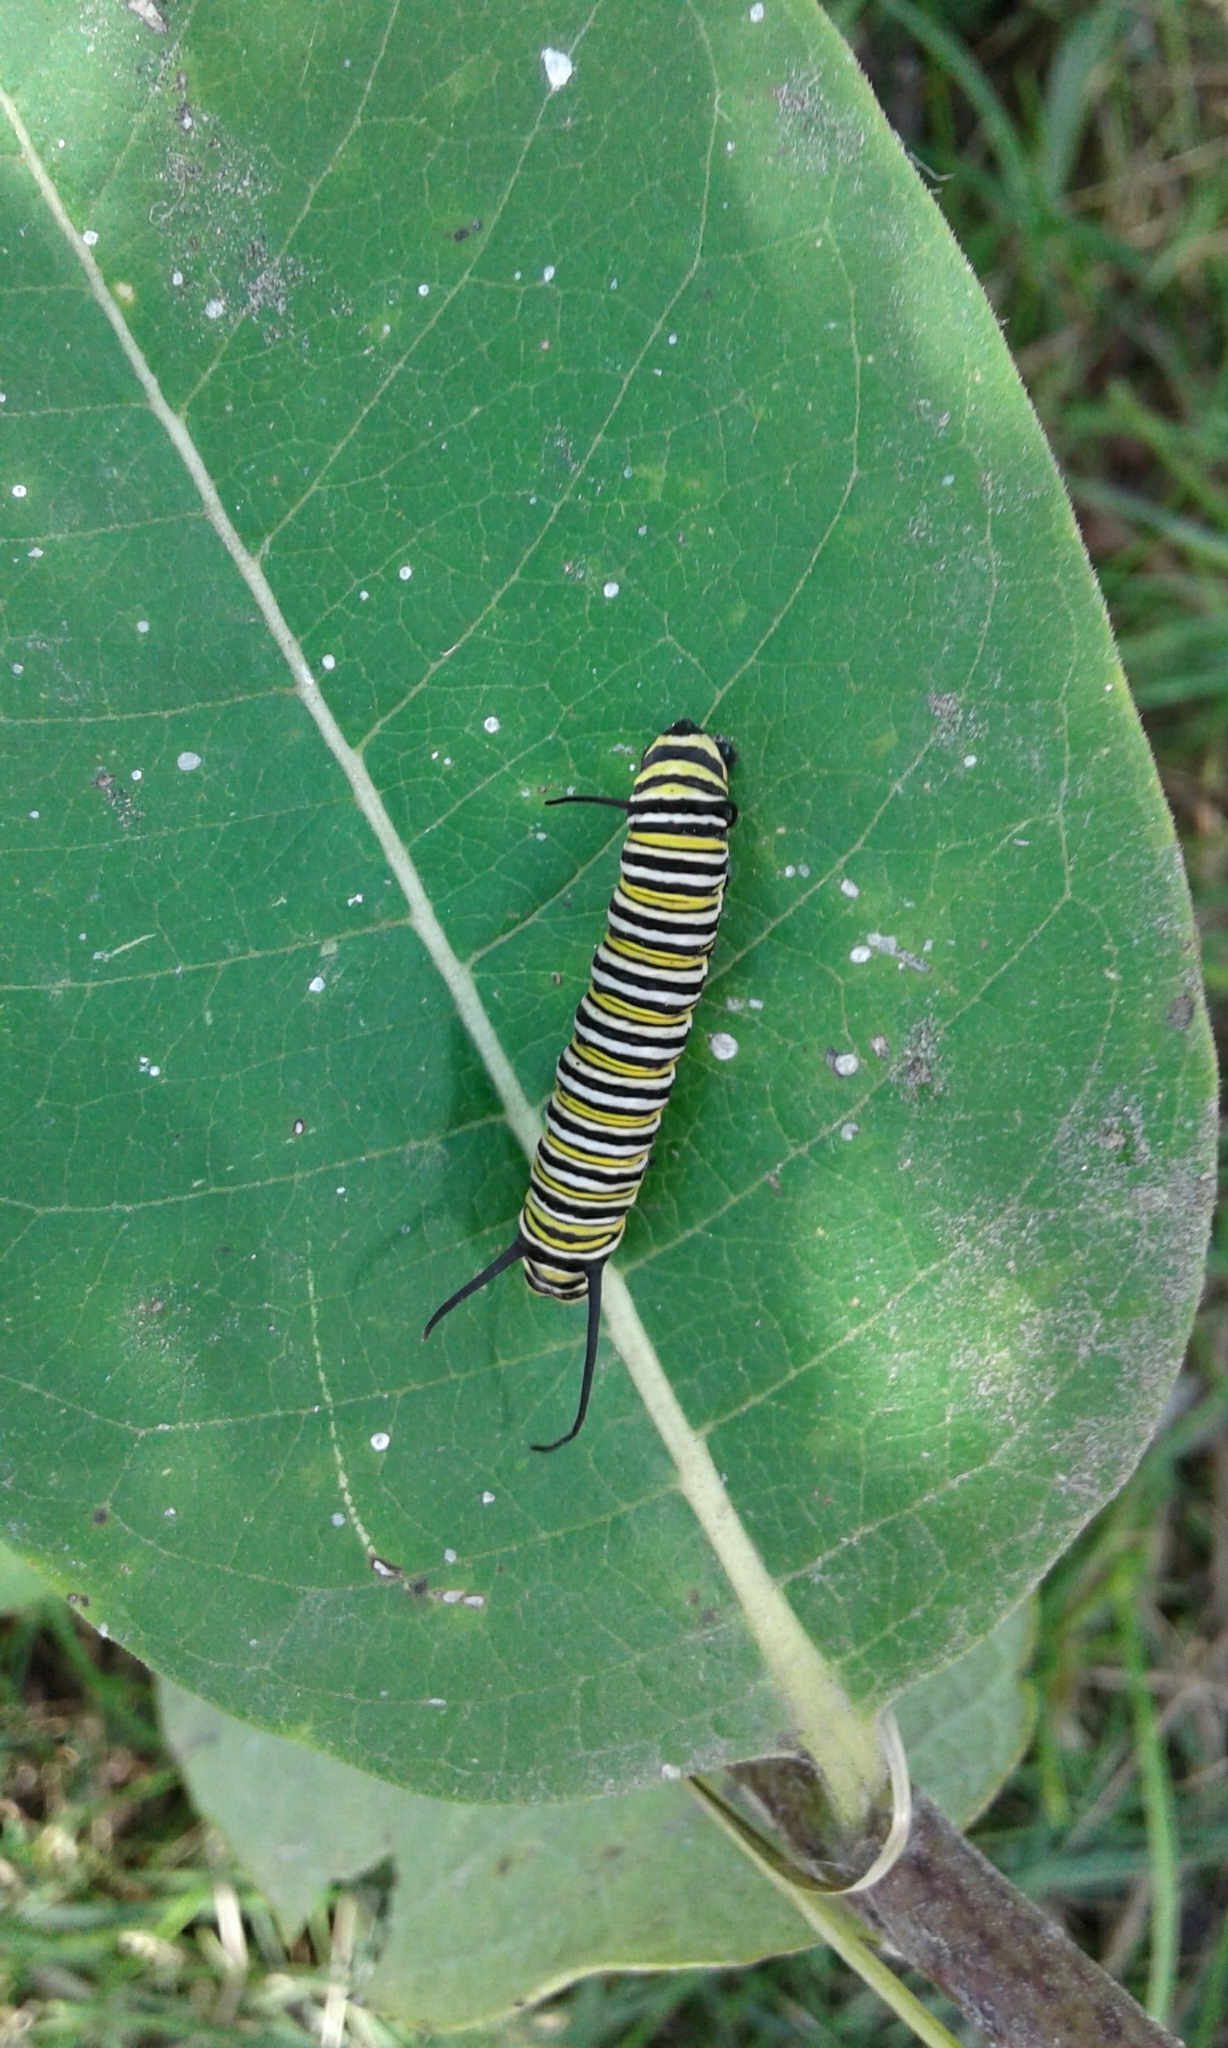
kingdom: Animalia
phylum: Arthropoda
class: Insecta
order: Lepidoptera
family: Nymphalidae
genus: Danaus
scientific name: Danaus plexippus
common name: Monarch
